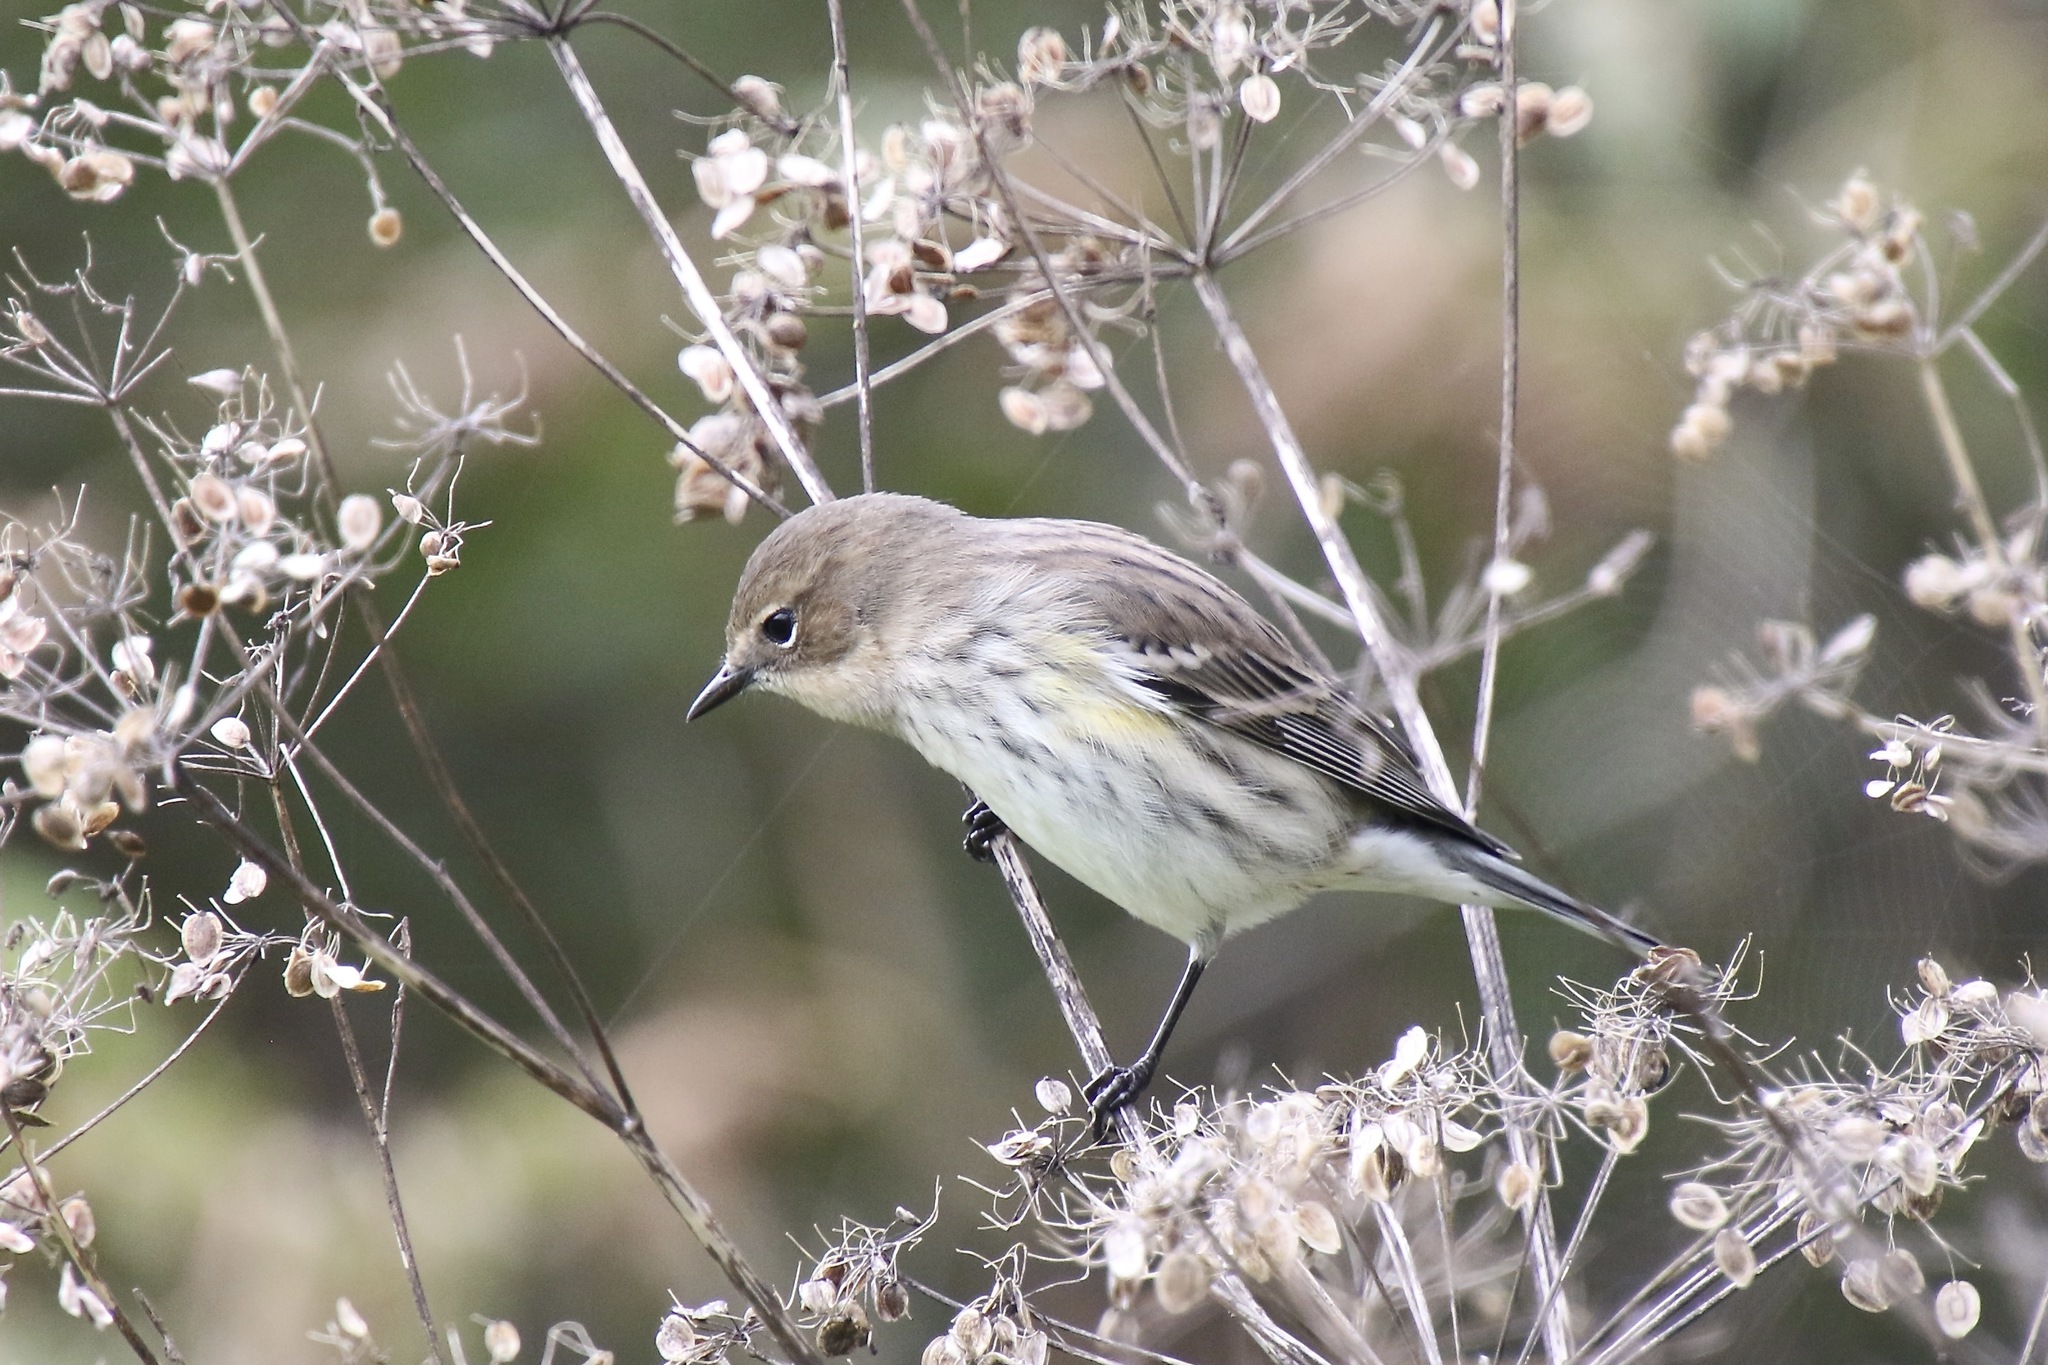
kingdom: Animalia
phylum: Chordata
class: Aves
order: Passeriformes
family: Parulidae
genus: Setophaga
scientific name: Setophaga coronata
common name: Myrtle warbler
